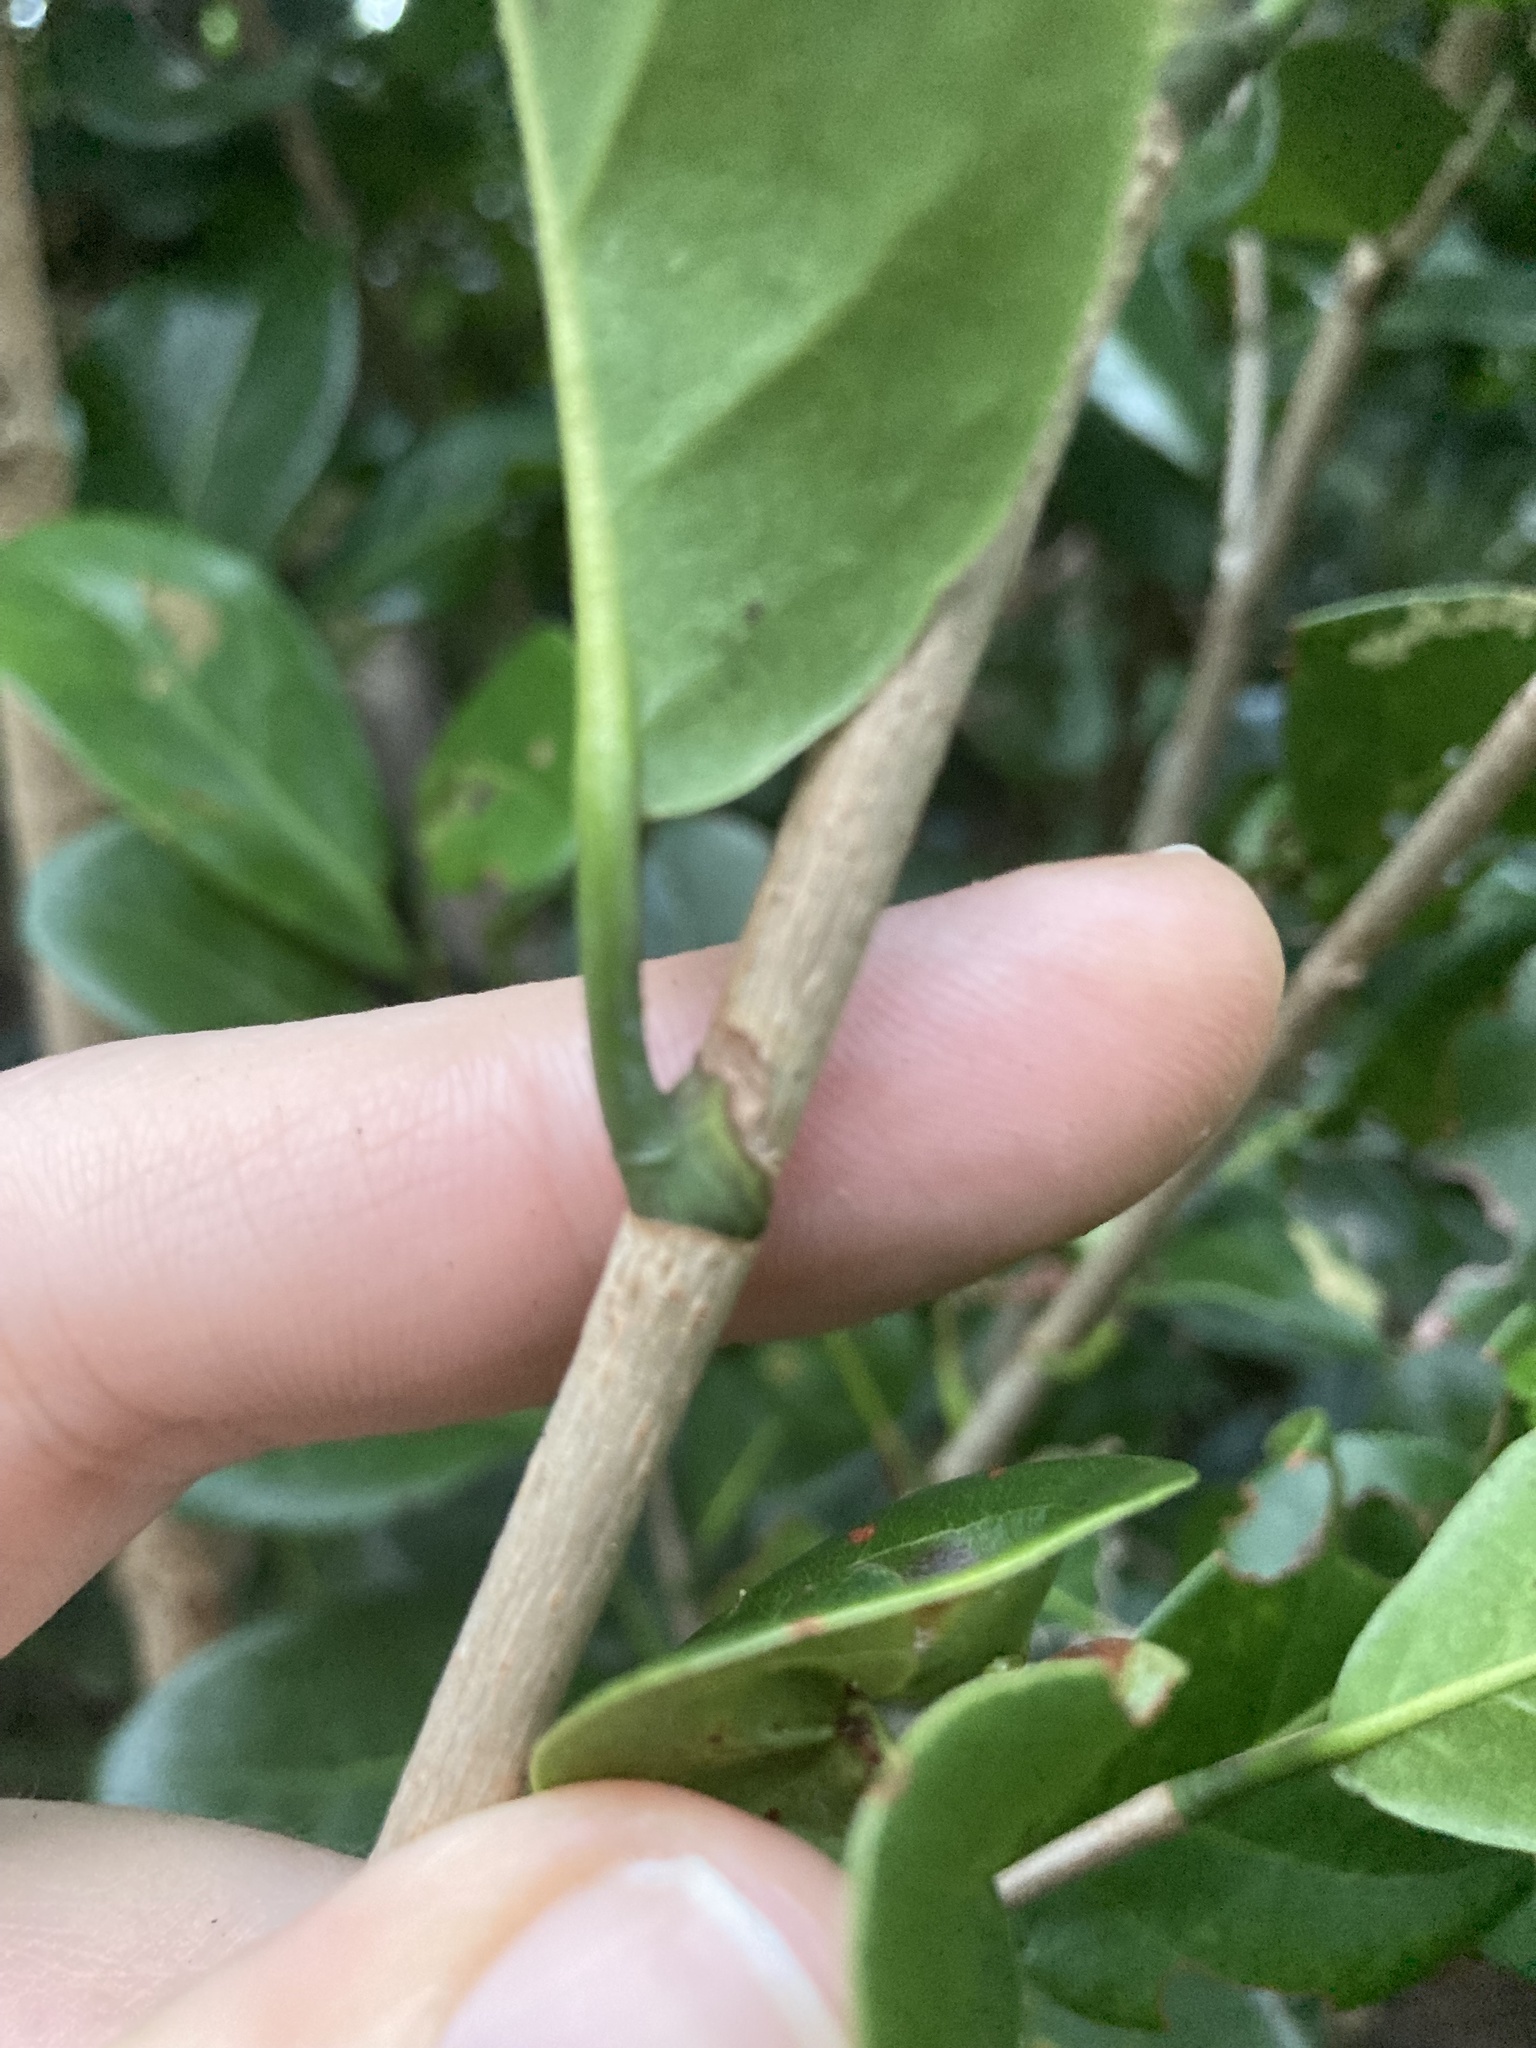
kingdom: Plantae
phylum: Tracheophyta
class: Magnoliopsida
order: Caryophyllales
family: Polygonaceae
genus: Coccoloba
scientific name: Coccoloba diversifolia
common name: Pigeon-plum
